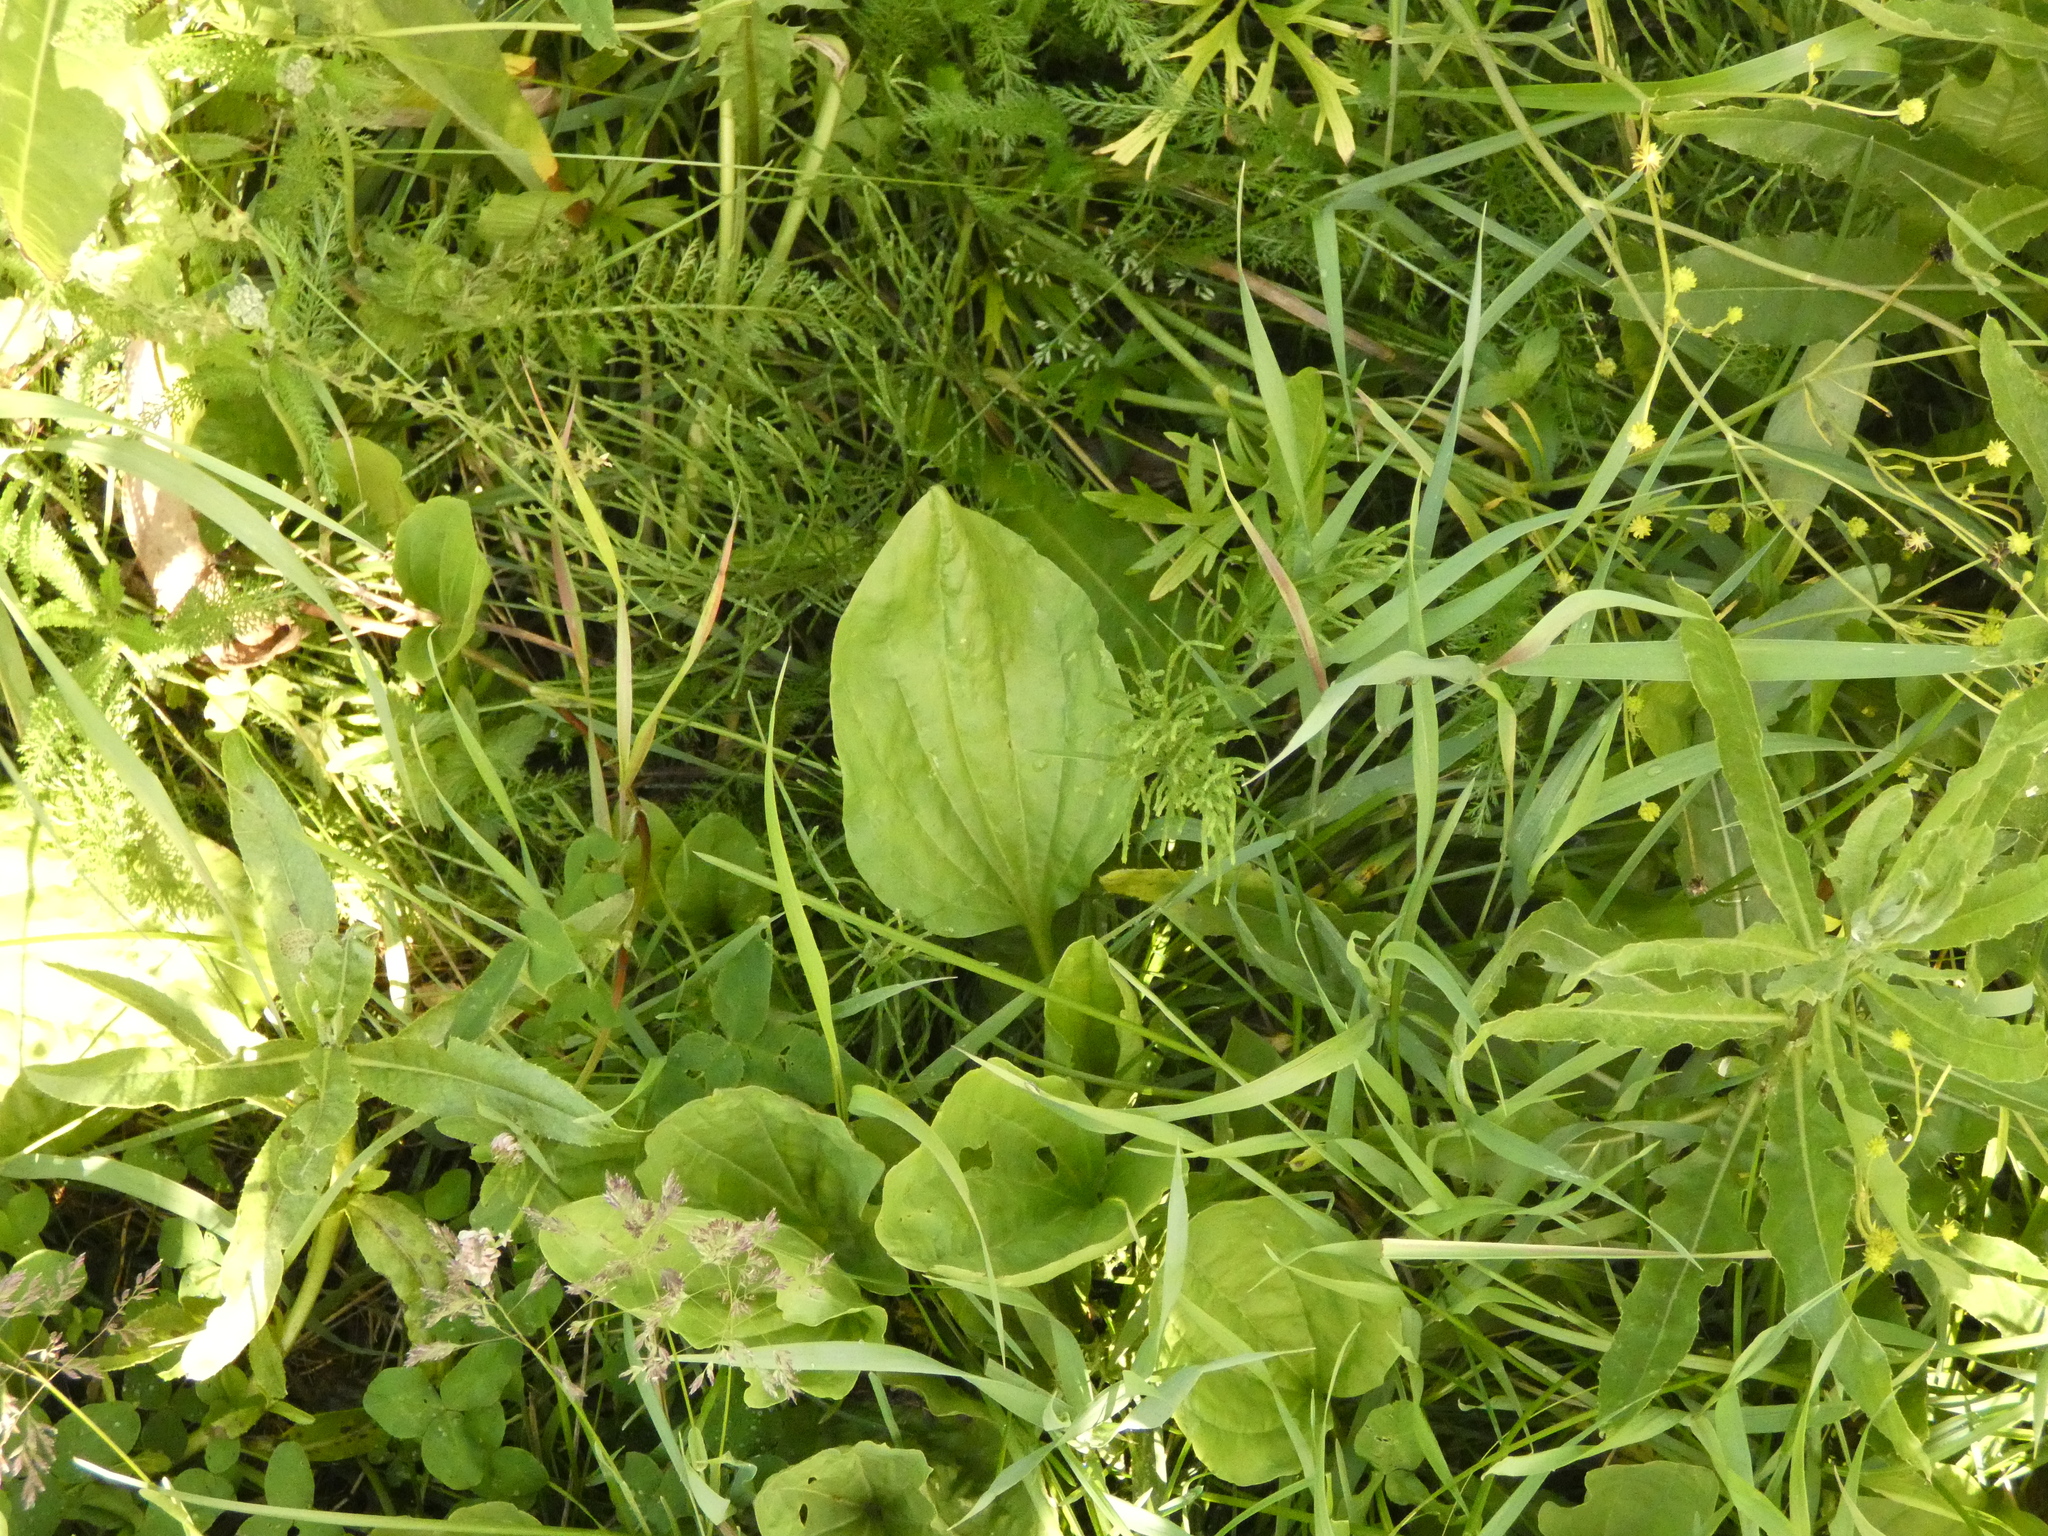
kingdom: Plantae
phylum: Tracheophyta
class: Magnoliopsida
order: Lamiales
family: Plantaginaceae
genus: Plantago
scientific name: Plantago major
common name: Common plantain
